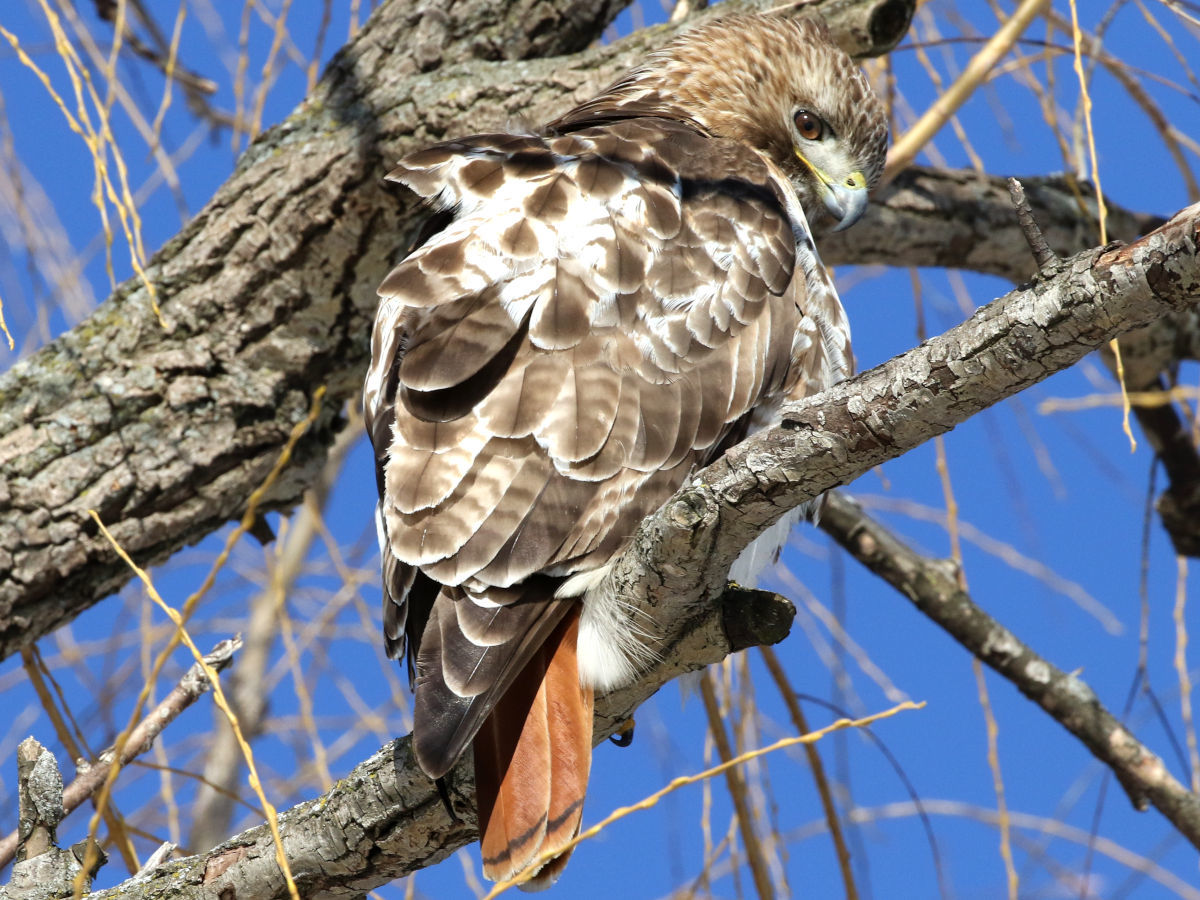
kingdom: Animalia
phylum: Chordata
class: Aves
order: Accipitriformes
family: Accipitridae
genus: Buteo
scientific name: Buteo jamaicensis
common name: Red-tailed hawk
